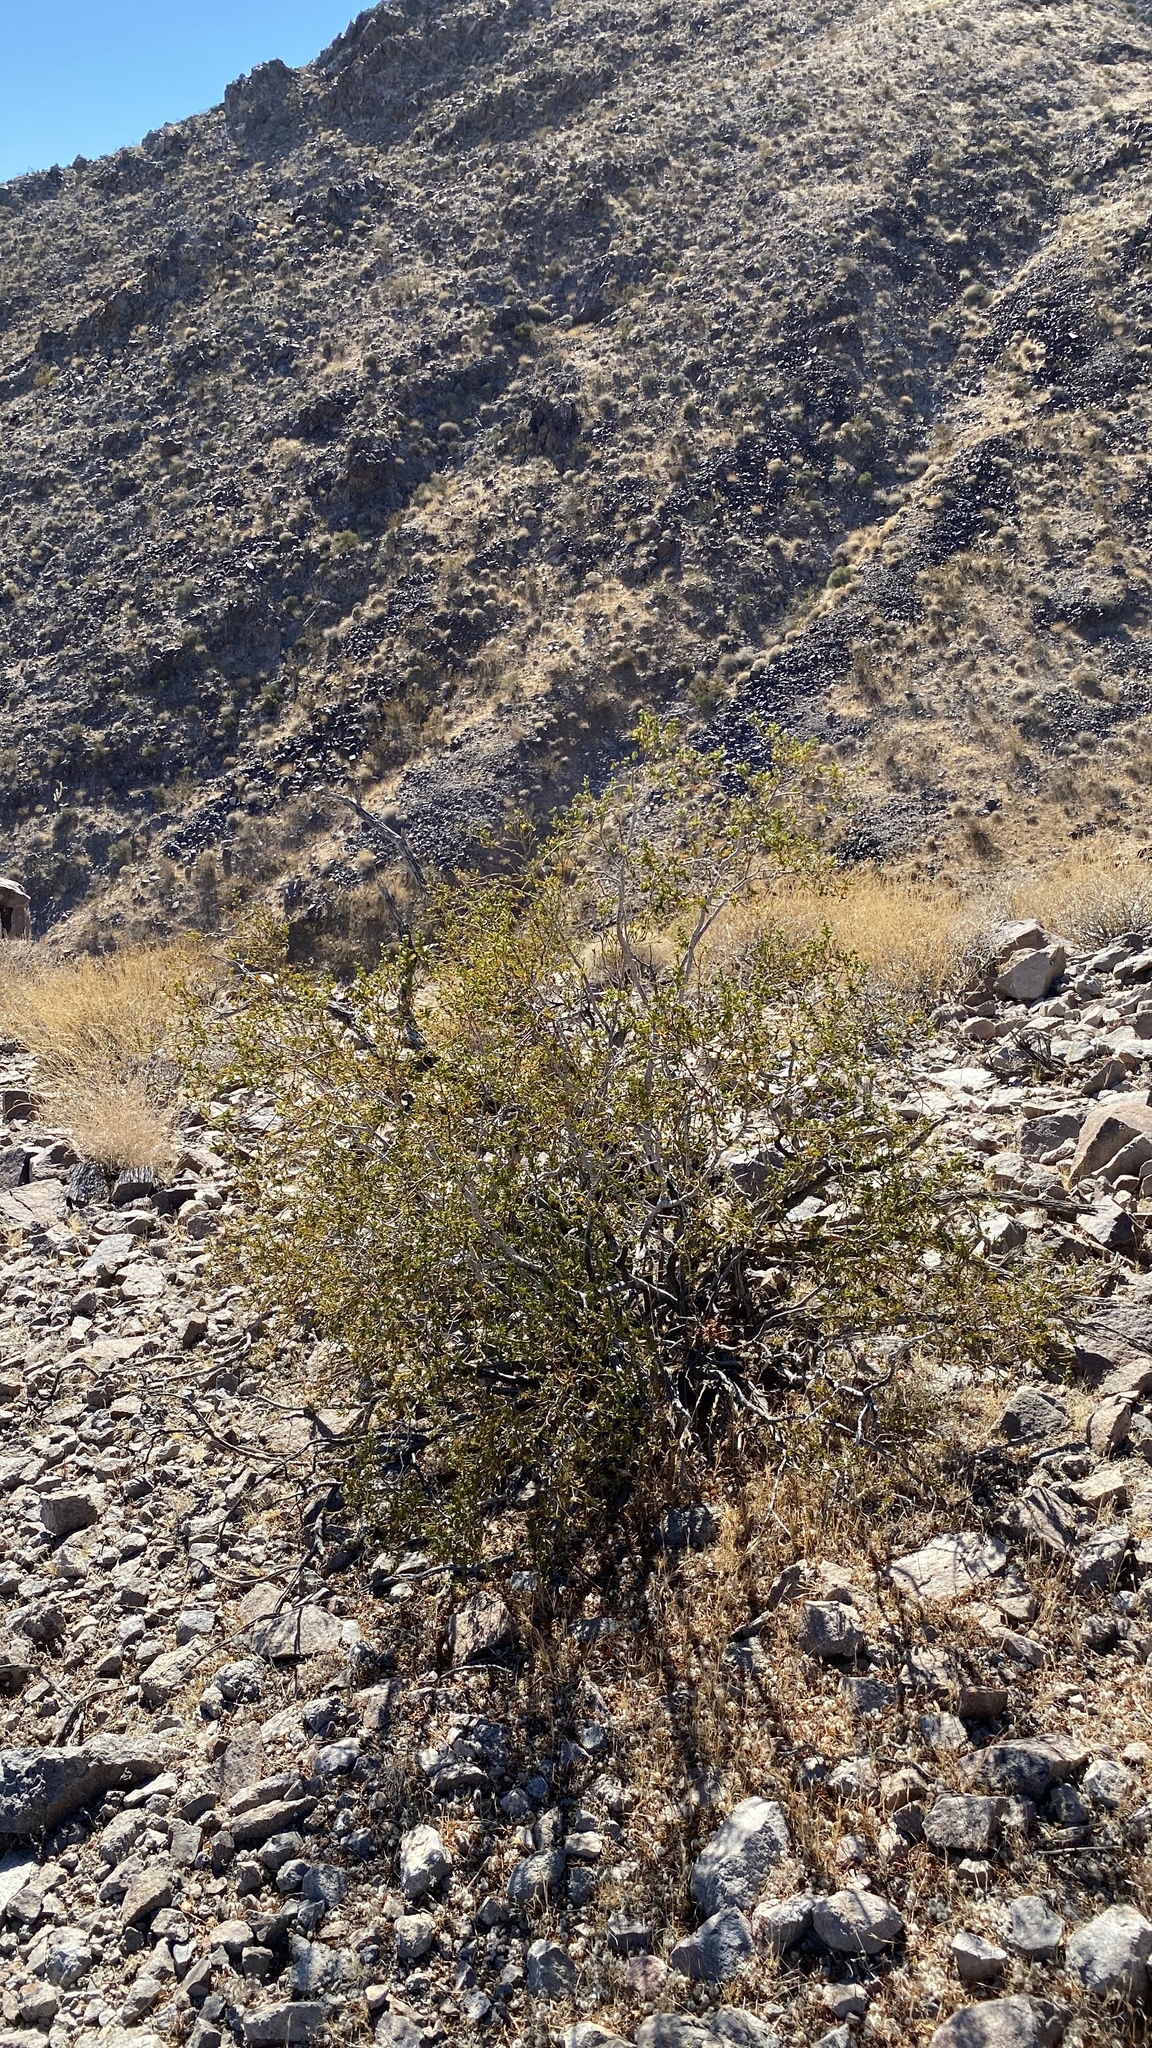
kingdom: Plantae
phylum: Tracheophyta
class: Magnoliopsida
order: Zygophyllales
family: Zygophyllaceae
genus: Larrea
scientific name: Larrea tridentata
